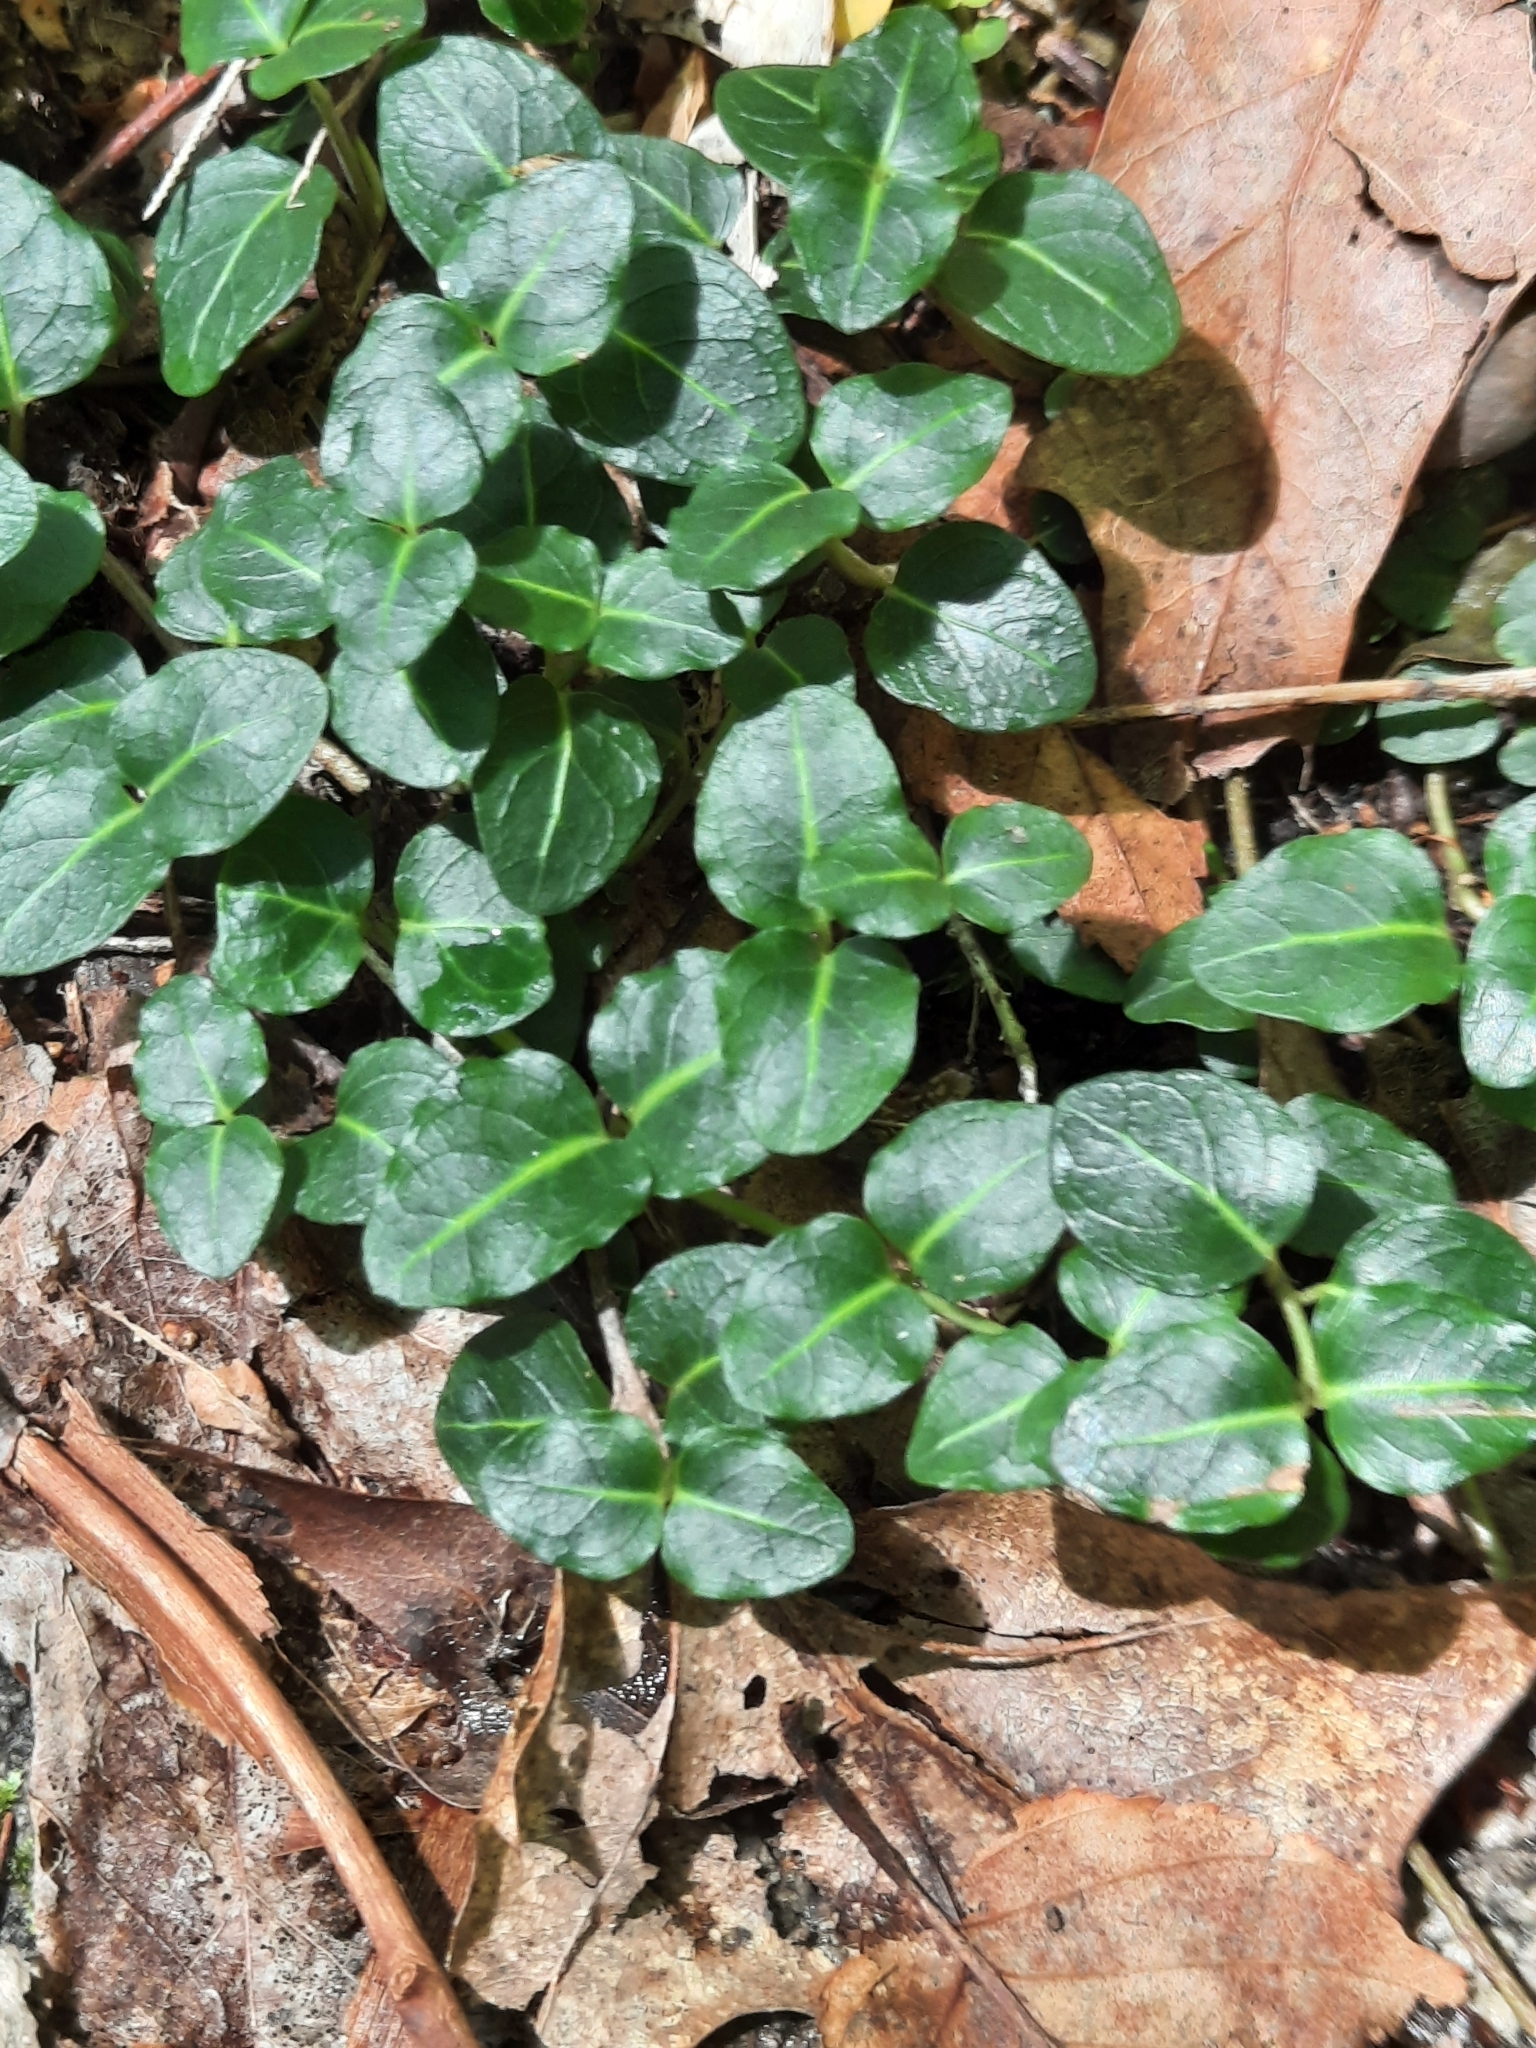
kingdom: Plantae
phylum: Tracheophyta
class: Magnoliopsida
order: Gentianales
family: Rubiaceae
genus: Mitchella
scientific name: Mitchella repens
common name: Partridge-berry
